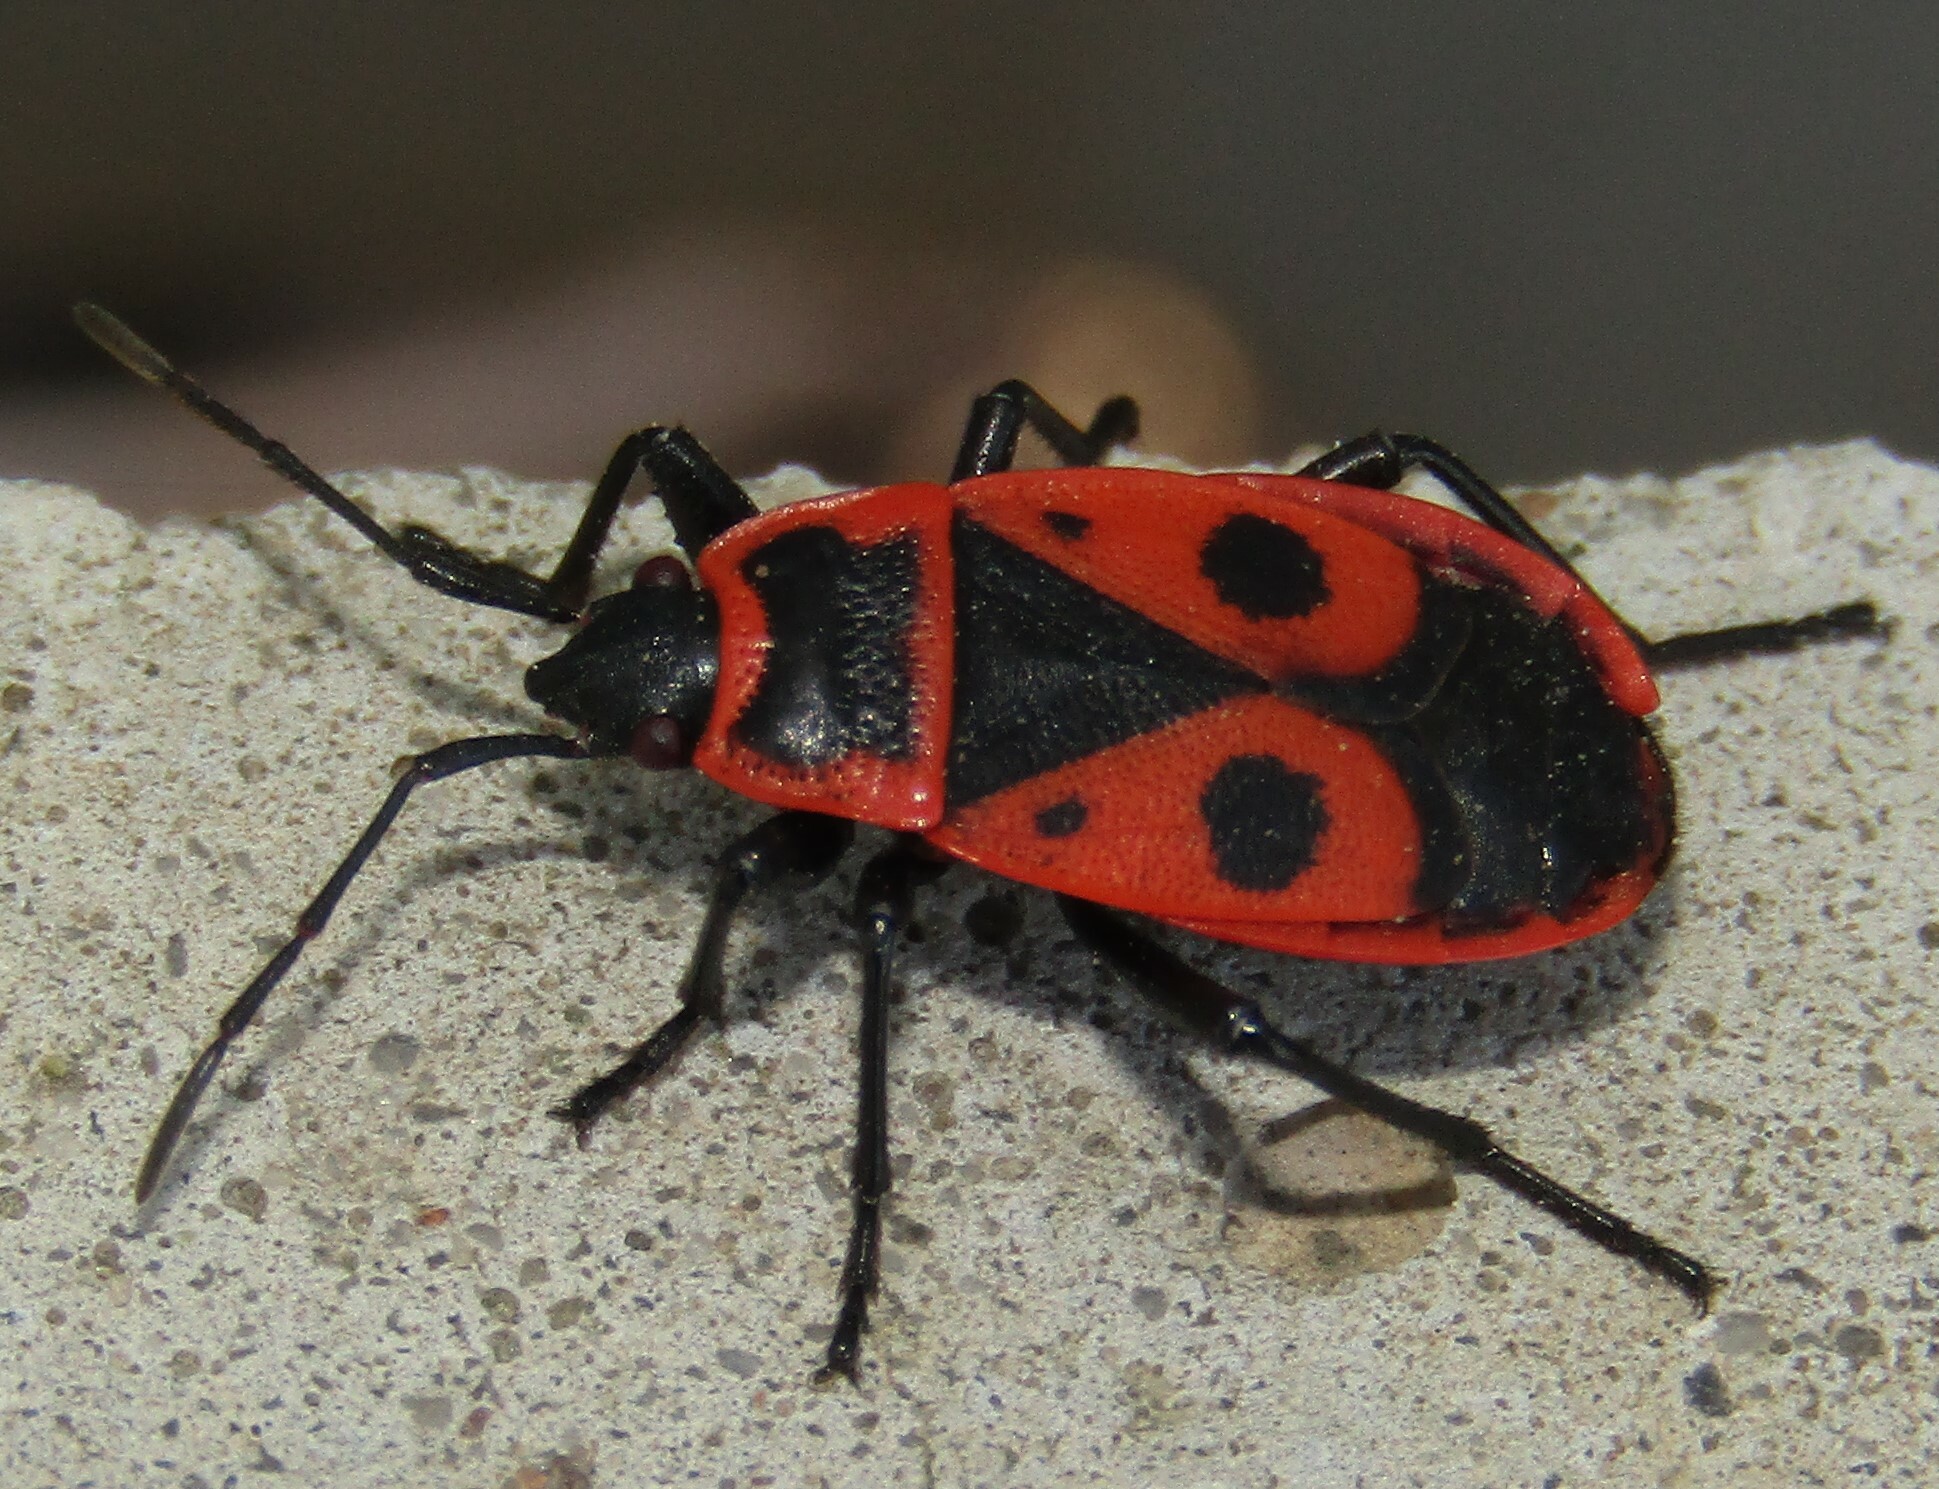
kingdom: Animalia
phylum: Arthropoda
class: Insecta
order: Hemiptera
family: Pyrrhocoridae
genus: Pyrrhocoris
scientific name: Pyrrhocoris apterus
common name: Firebug
